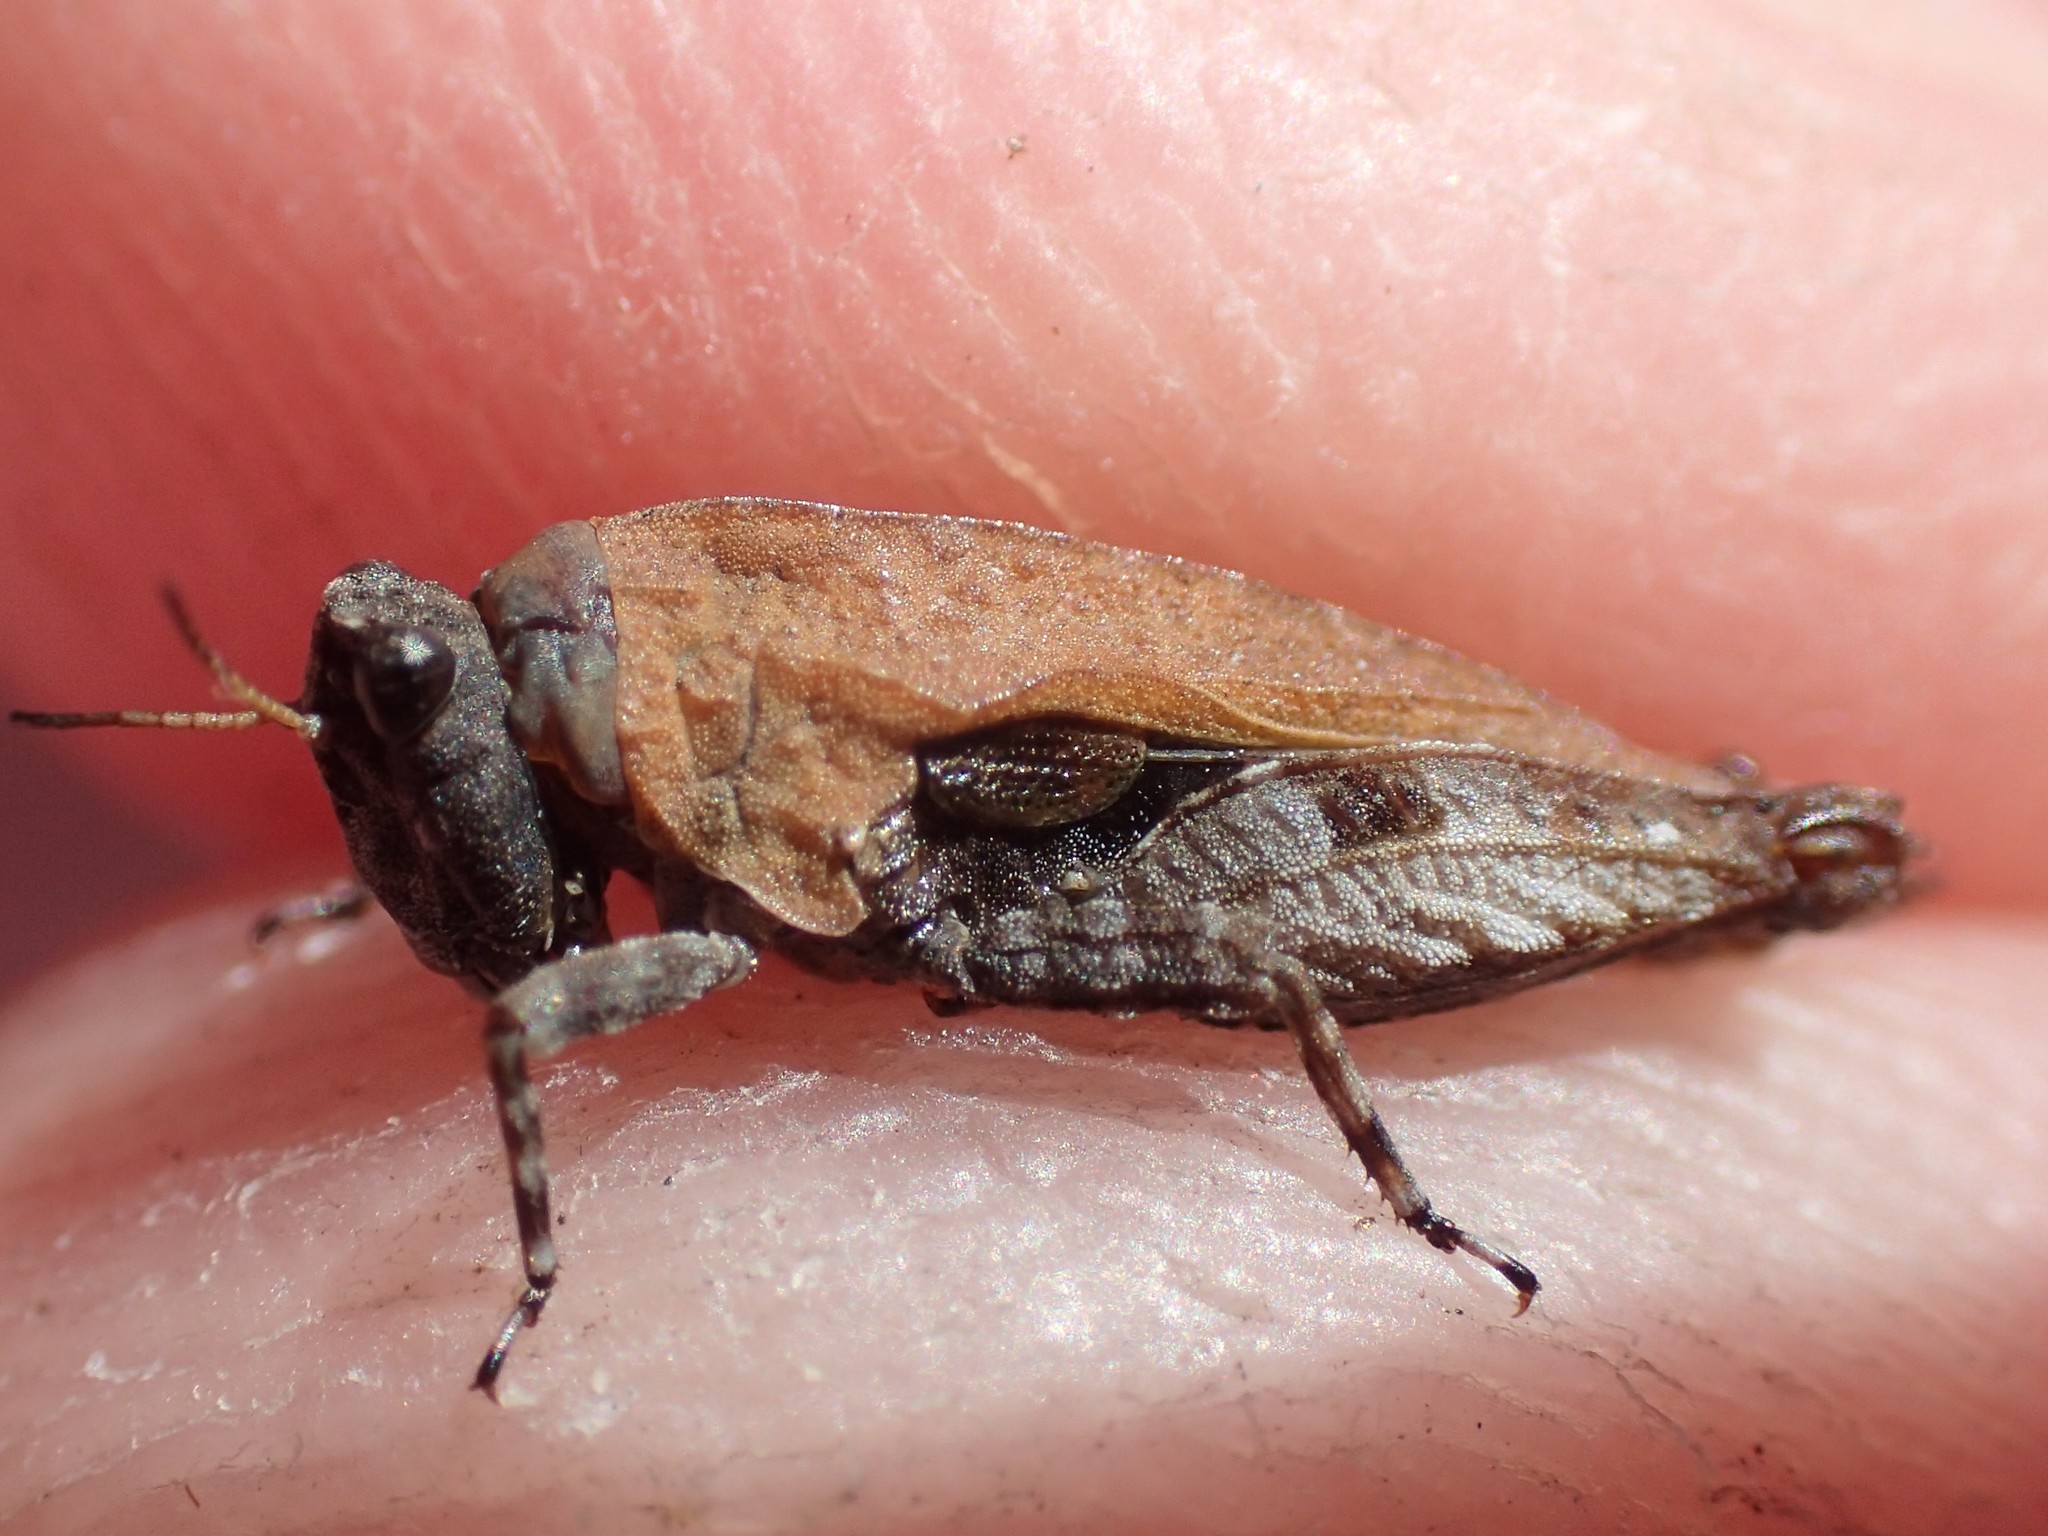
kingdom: Animalia
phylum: Arthropoda
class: Insecta
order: Orthoptera
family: Tetrigidae
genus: Paratettix
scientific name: Paratettix argillaceus
